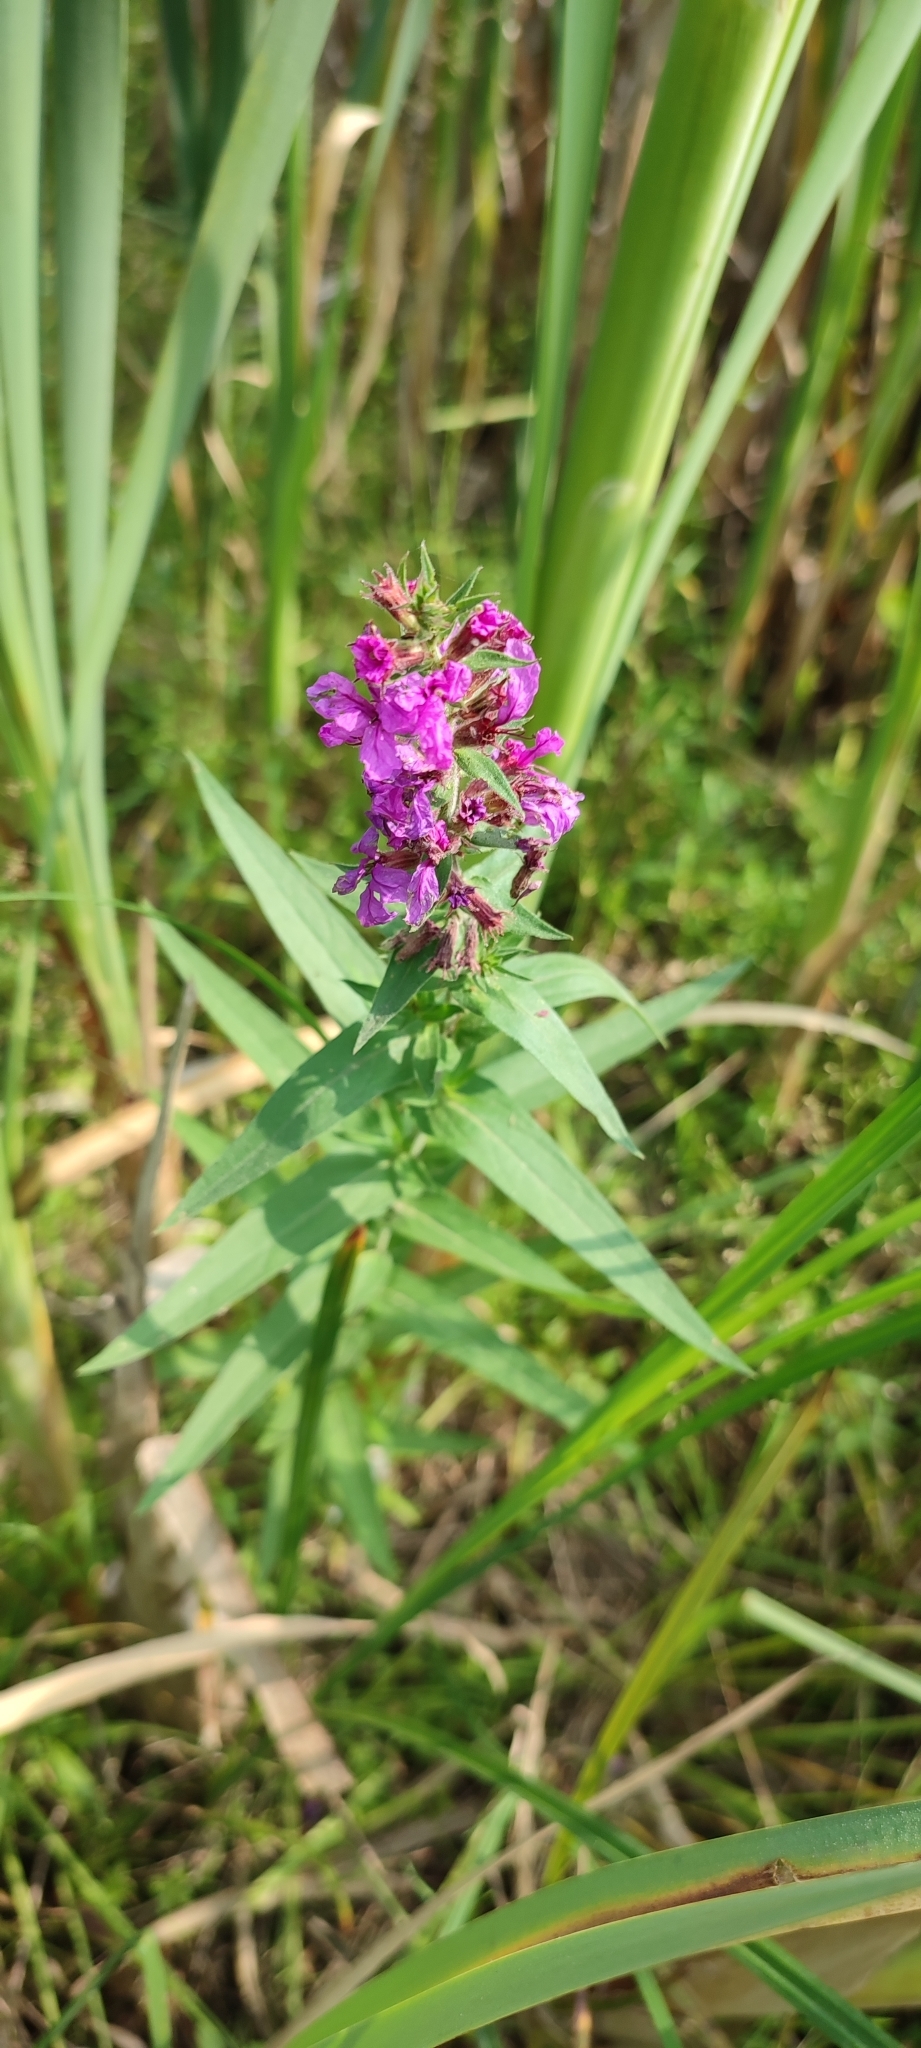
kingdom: Plantae
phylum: Tracheophyta
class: Magnoliopsida
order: Myrtales
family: Lythraceae
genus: Lythrum
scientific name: Lythrum salicaria
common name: Purple loosestrife
